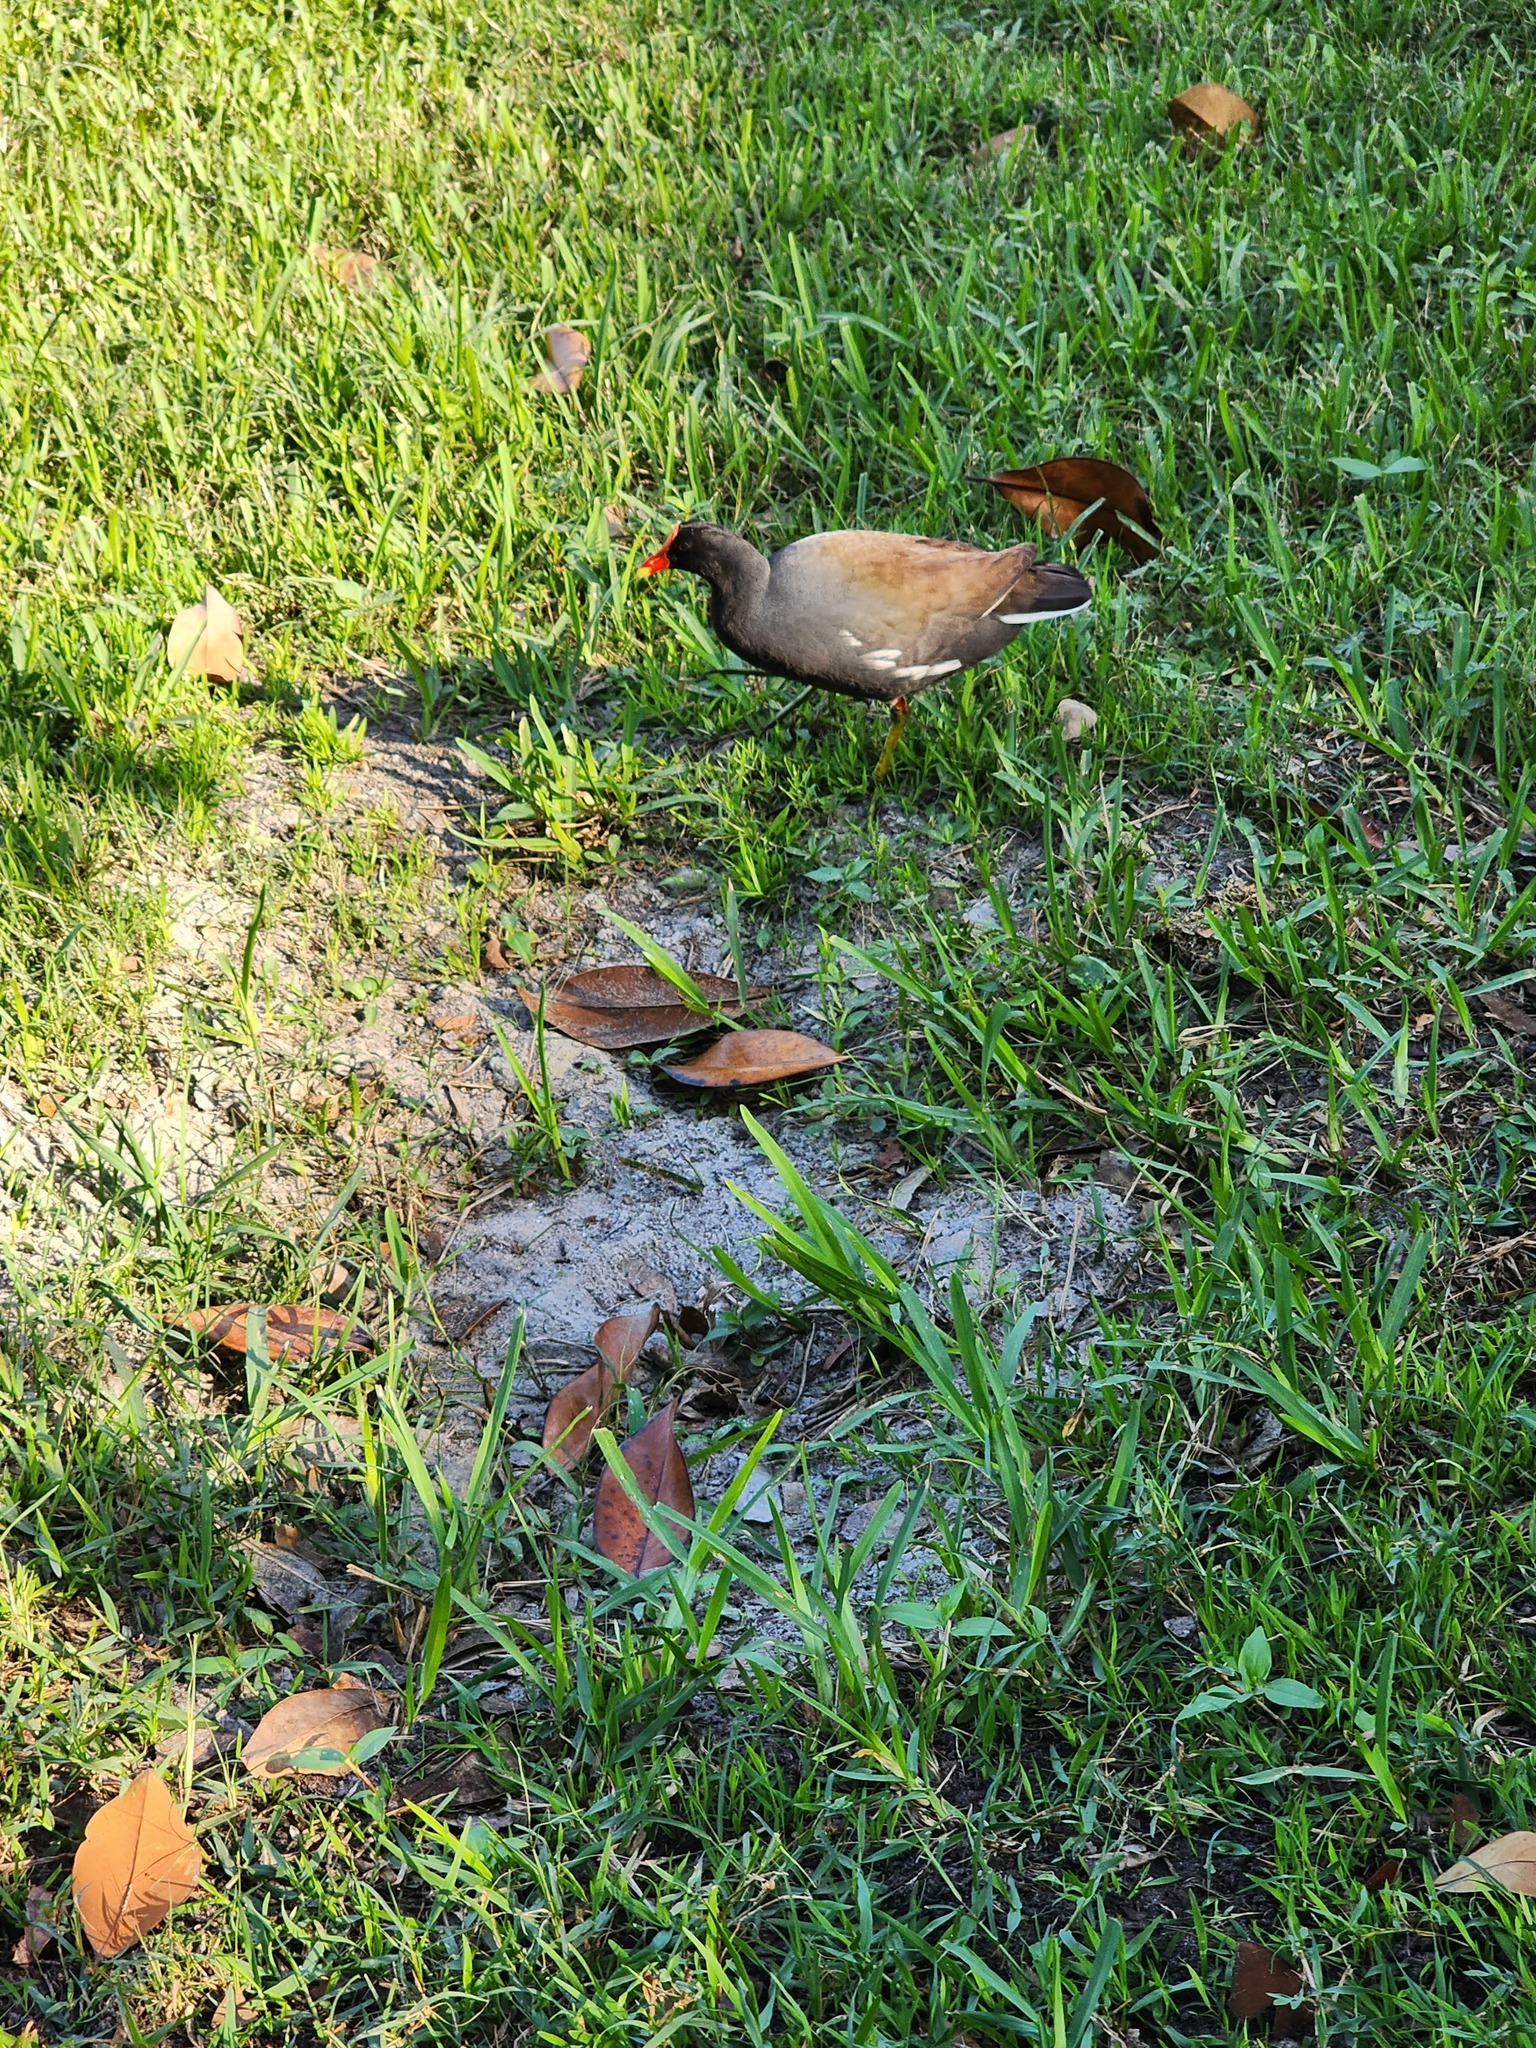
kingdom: Animalia
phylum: Chordata
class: Aves
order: Gruiformes
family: Rallidae
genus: Gallinula
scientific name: Gallinula chloropus
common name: Common moorhen
